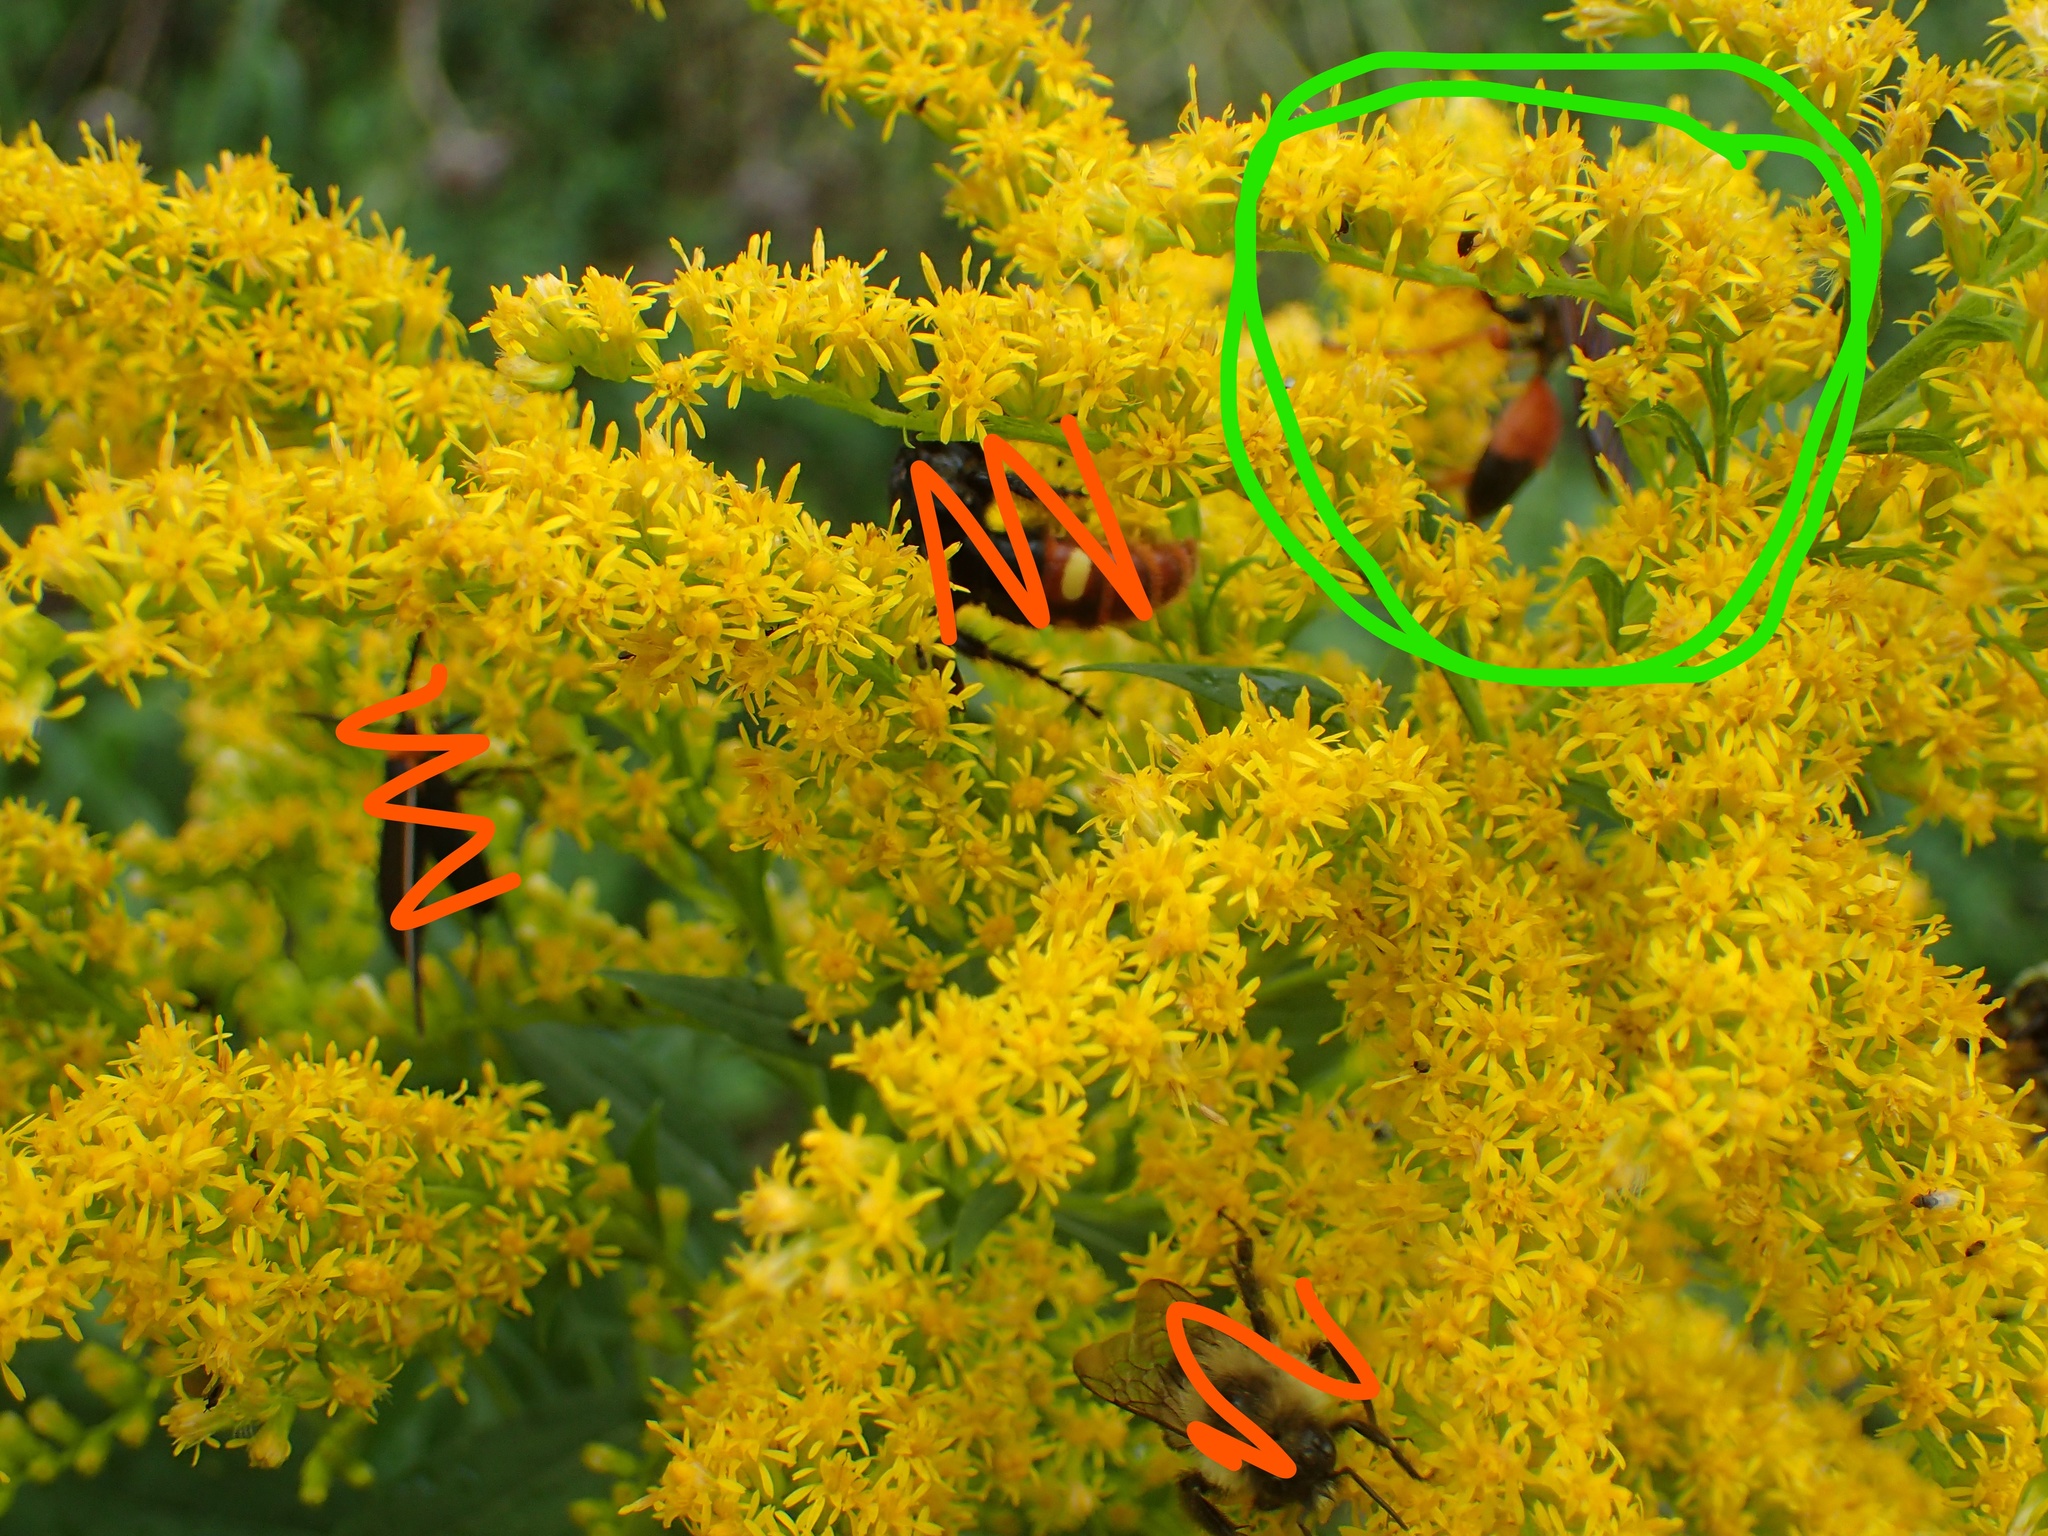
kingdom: Animalia
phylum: Arthropoda
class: Insecta
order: Hymenoptera
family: Sphecidae
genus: Sphex
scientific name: Sphex ichneumoneus
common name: Great golden digger wasp
